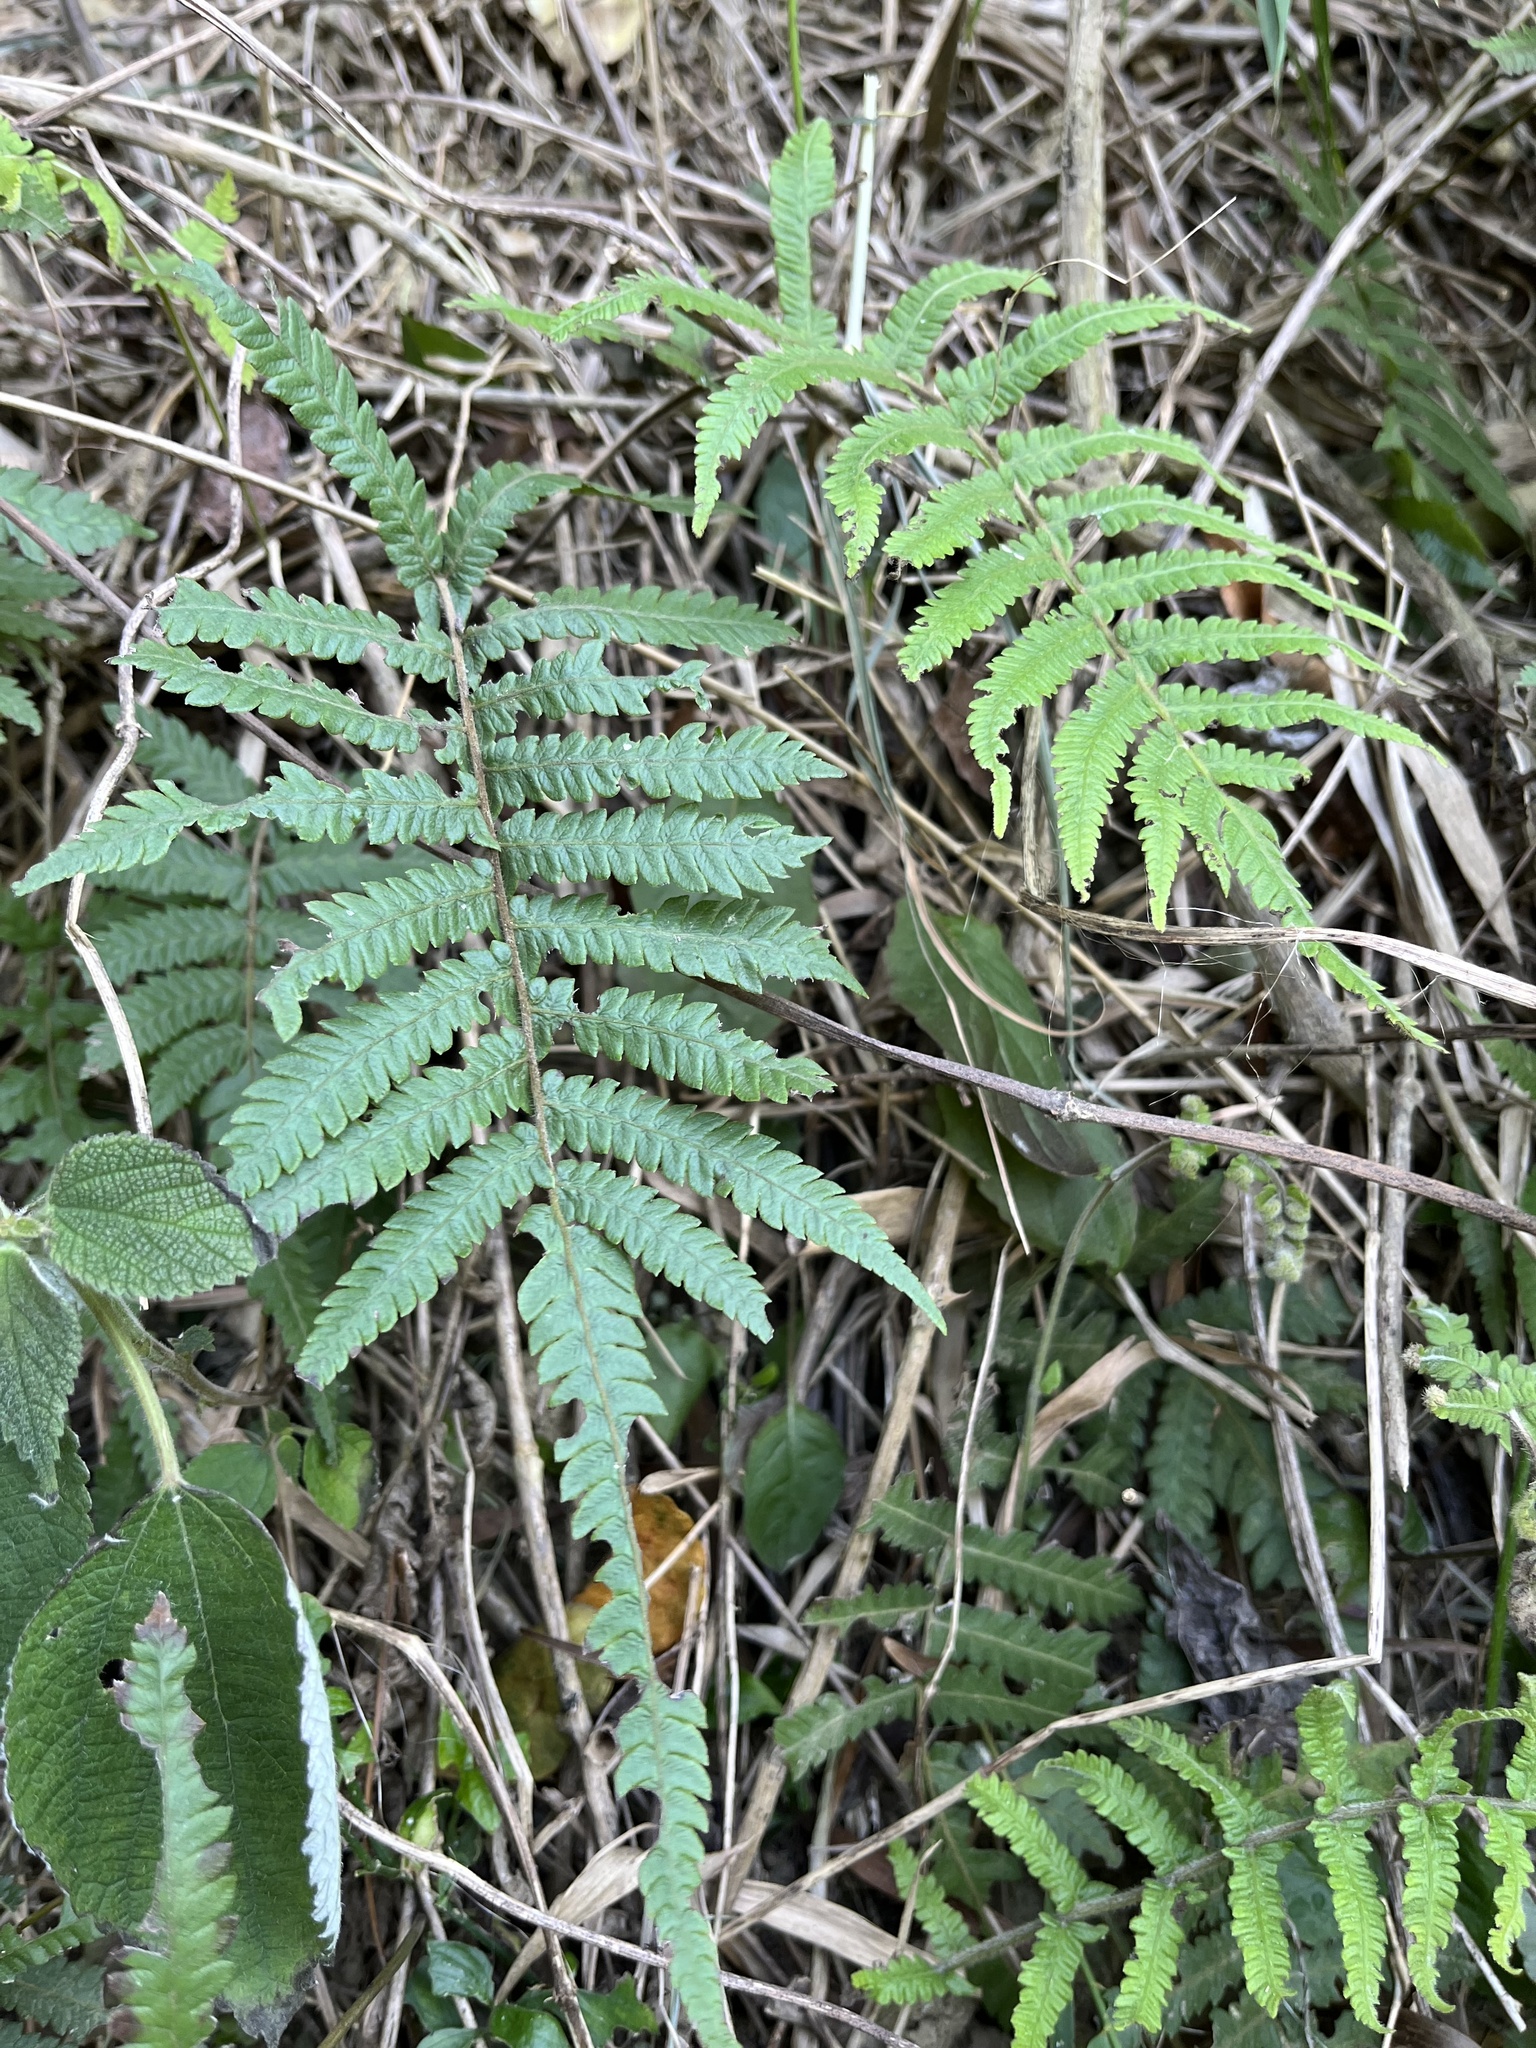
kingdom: Plantae
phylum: Tracheophyta
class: Polypodiopsida
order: Polypodiales
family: Thelypteridaceae
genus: Christella
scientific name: Christella acuminata
